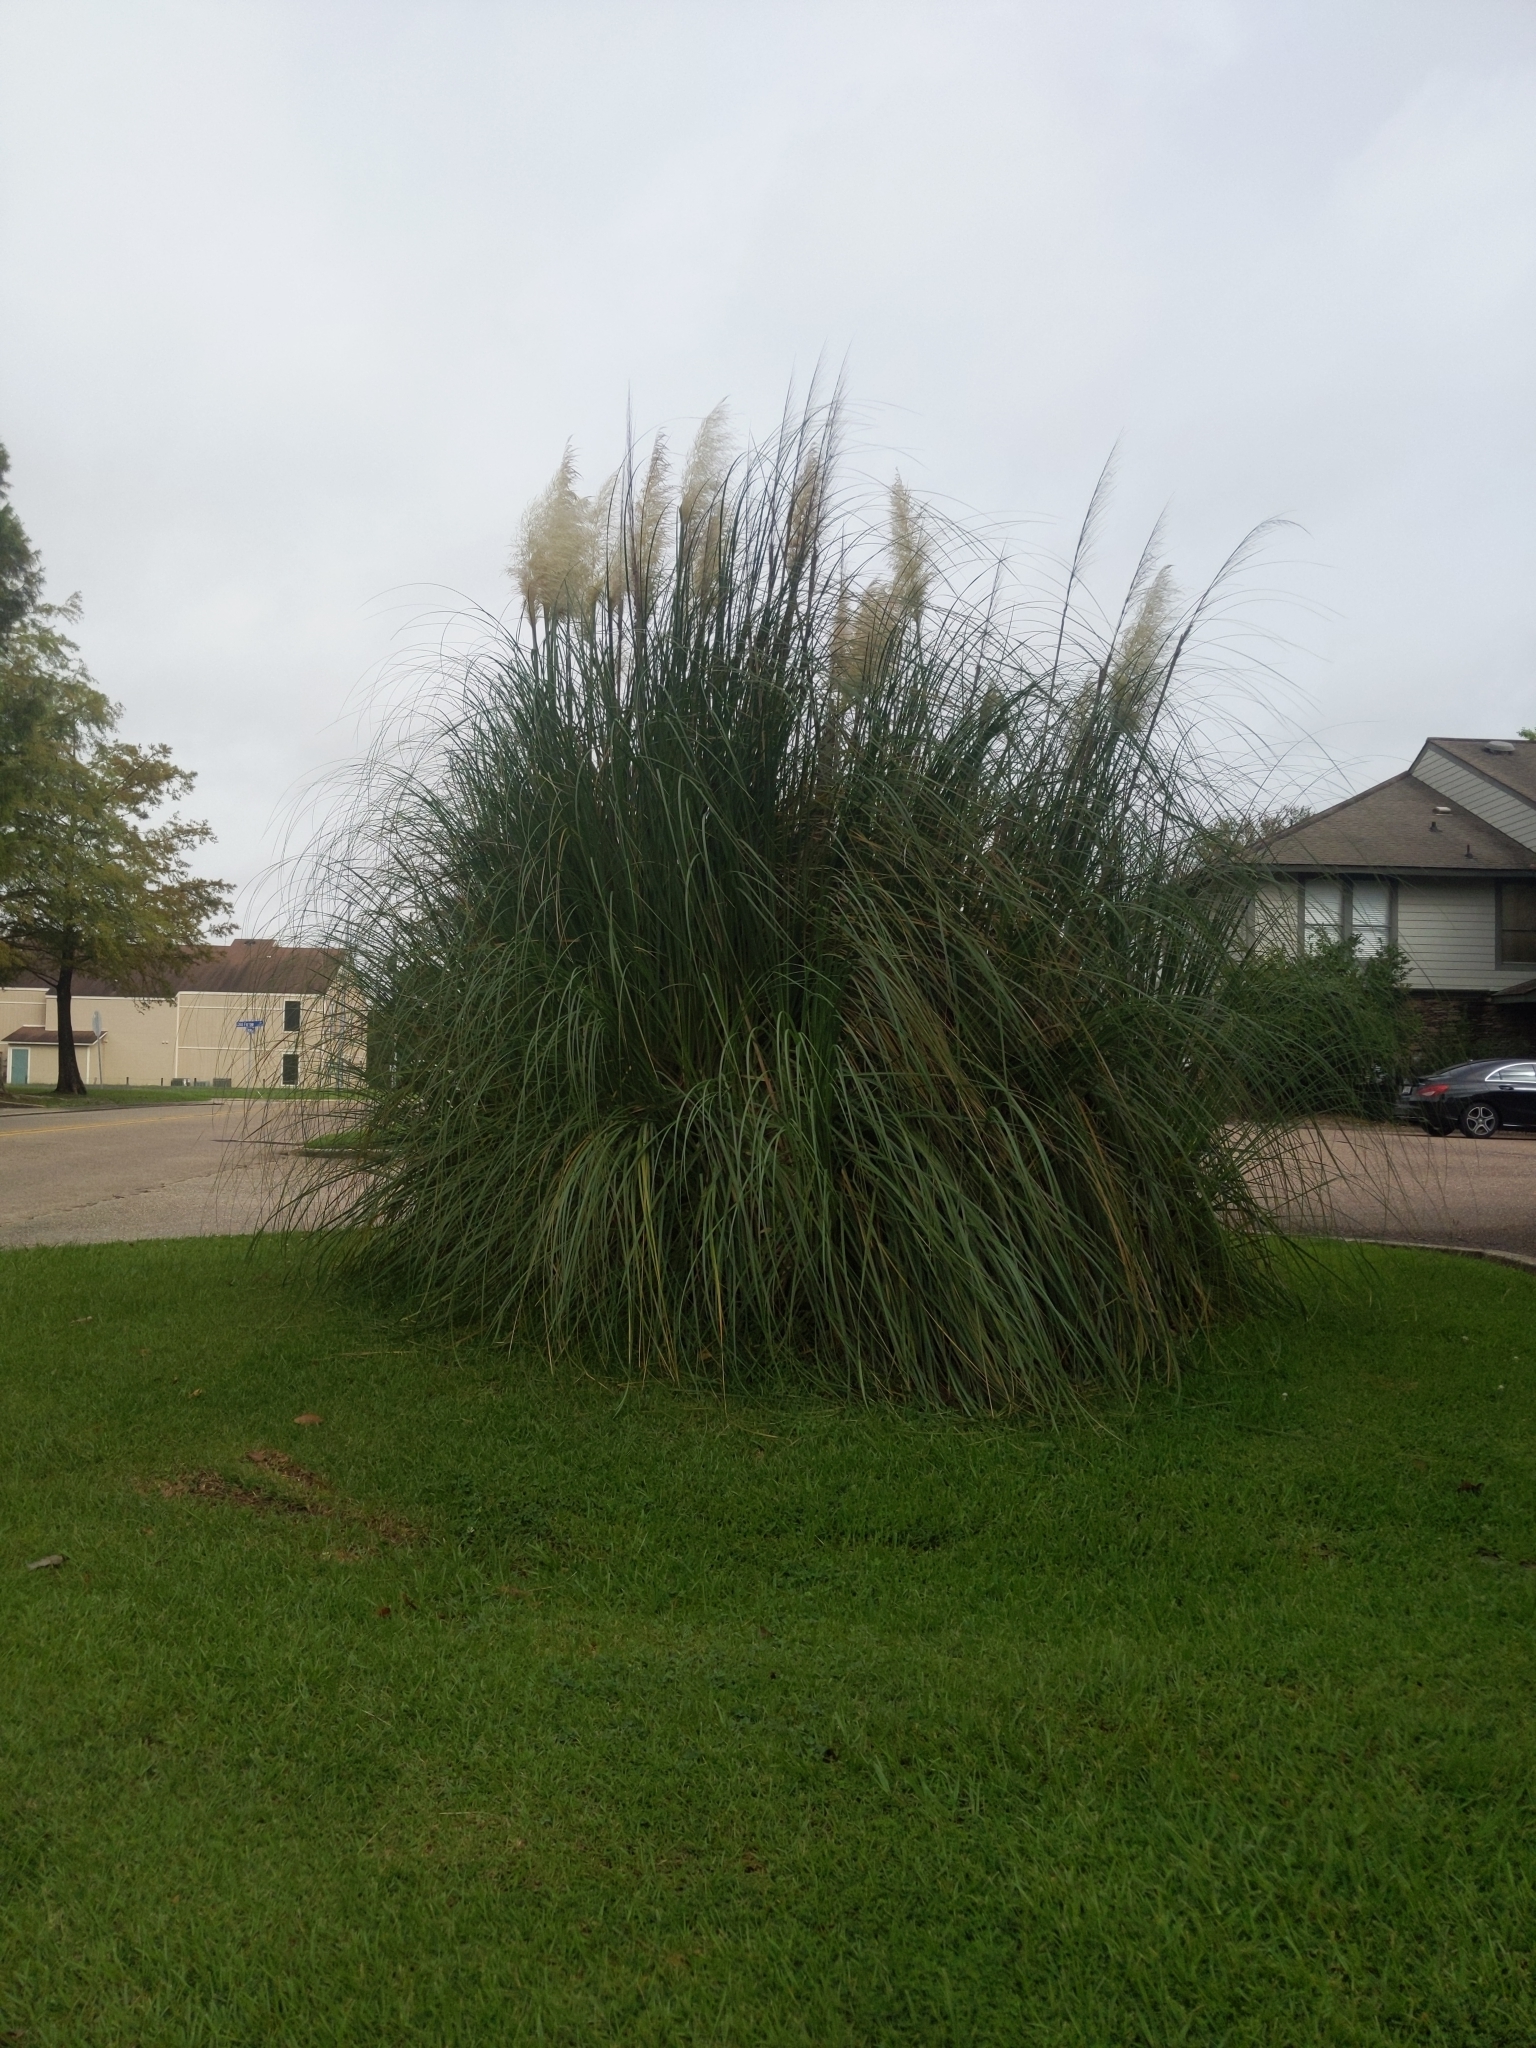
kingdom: Plantae
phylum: Tracheophyta
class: Liliopsida
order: Poales
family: Poaceae
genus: Cortaderia
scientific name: Cortaderia selloana
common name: Uruguayan pampas grass
